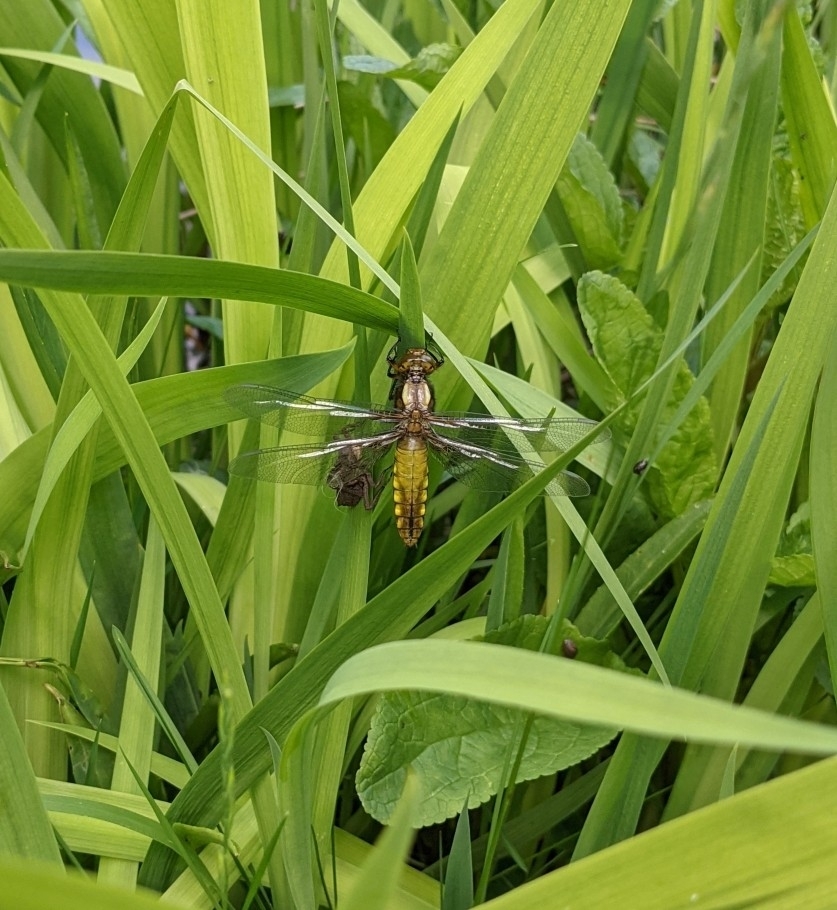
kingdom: Animalia
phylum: Arthropoda
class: Insecta
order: Odonata
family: Libellulidae
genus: Libellula
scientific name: Libellula depressa
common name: Broad-bodied chaser
